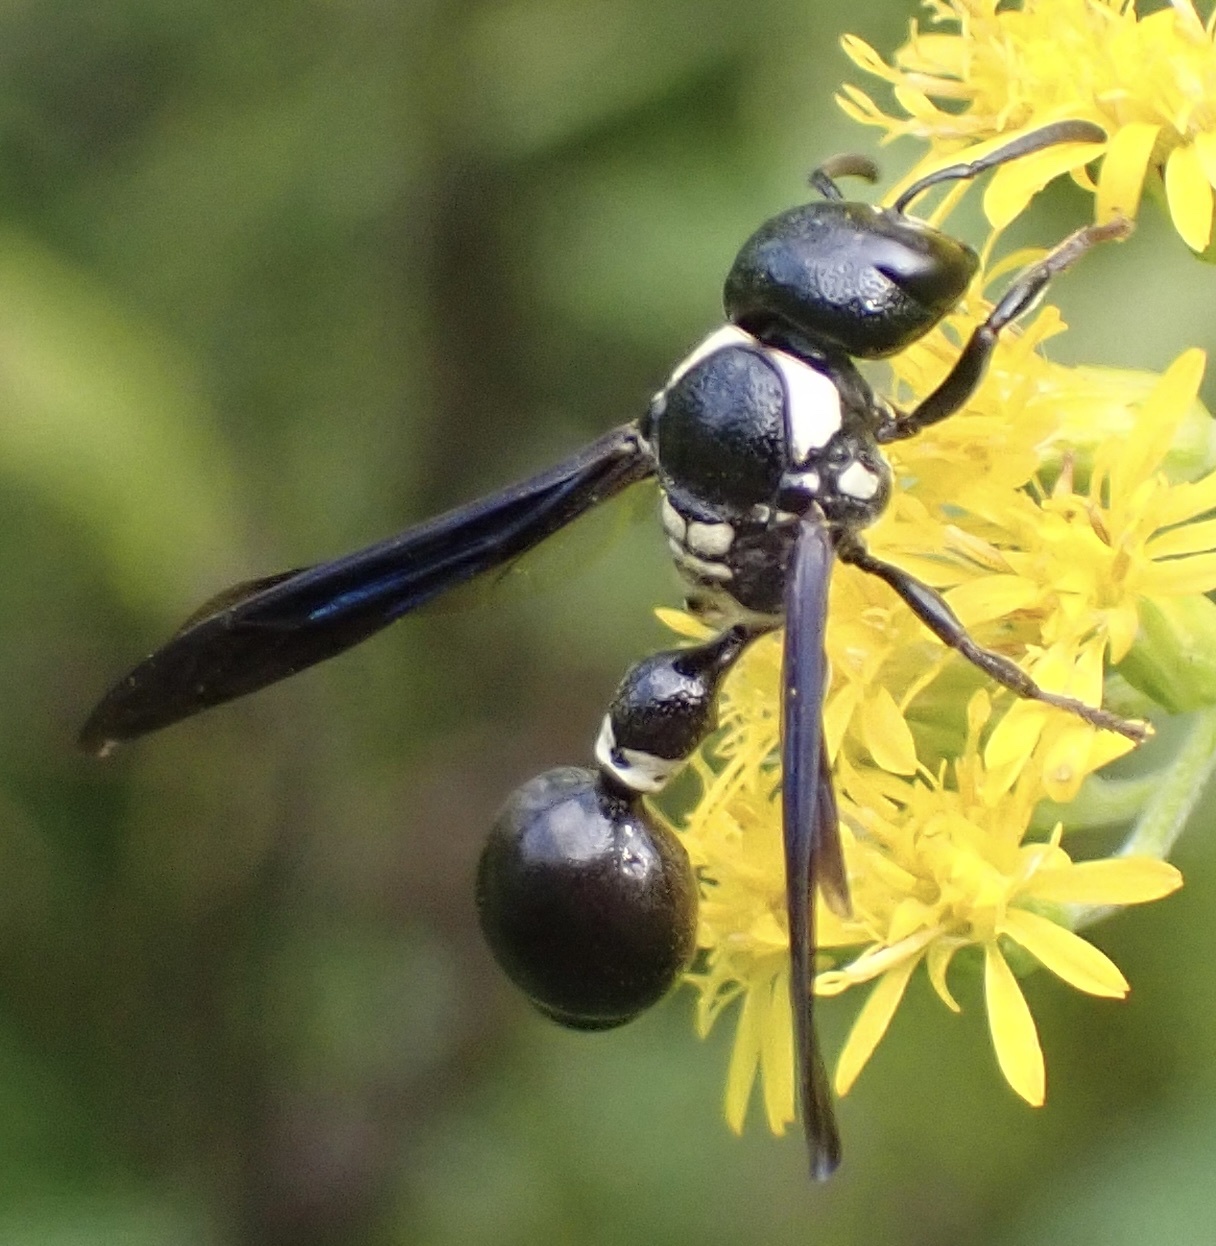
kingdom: Animalia
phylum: Arthropoda
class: Insecta
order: Hymenoptera
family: Eumenidae
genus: Zethus
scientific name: Zethus spinipes
